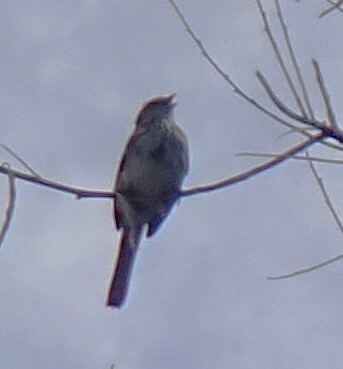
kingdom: Animalia
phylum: Chordata
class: Aves
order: Passeriformes
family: Passerellidae
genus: Melospiza
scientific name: Melospiza melodia
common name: Song sparrow
